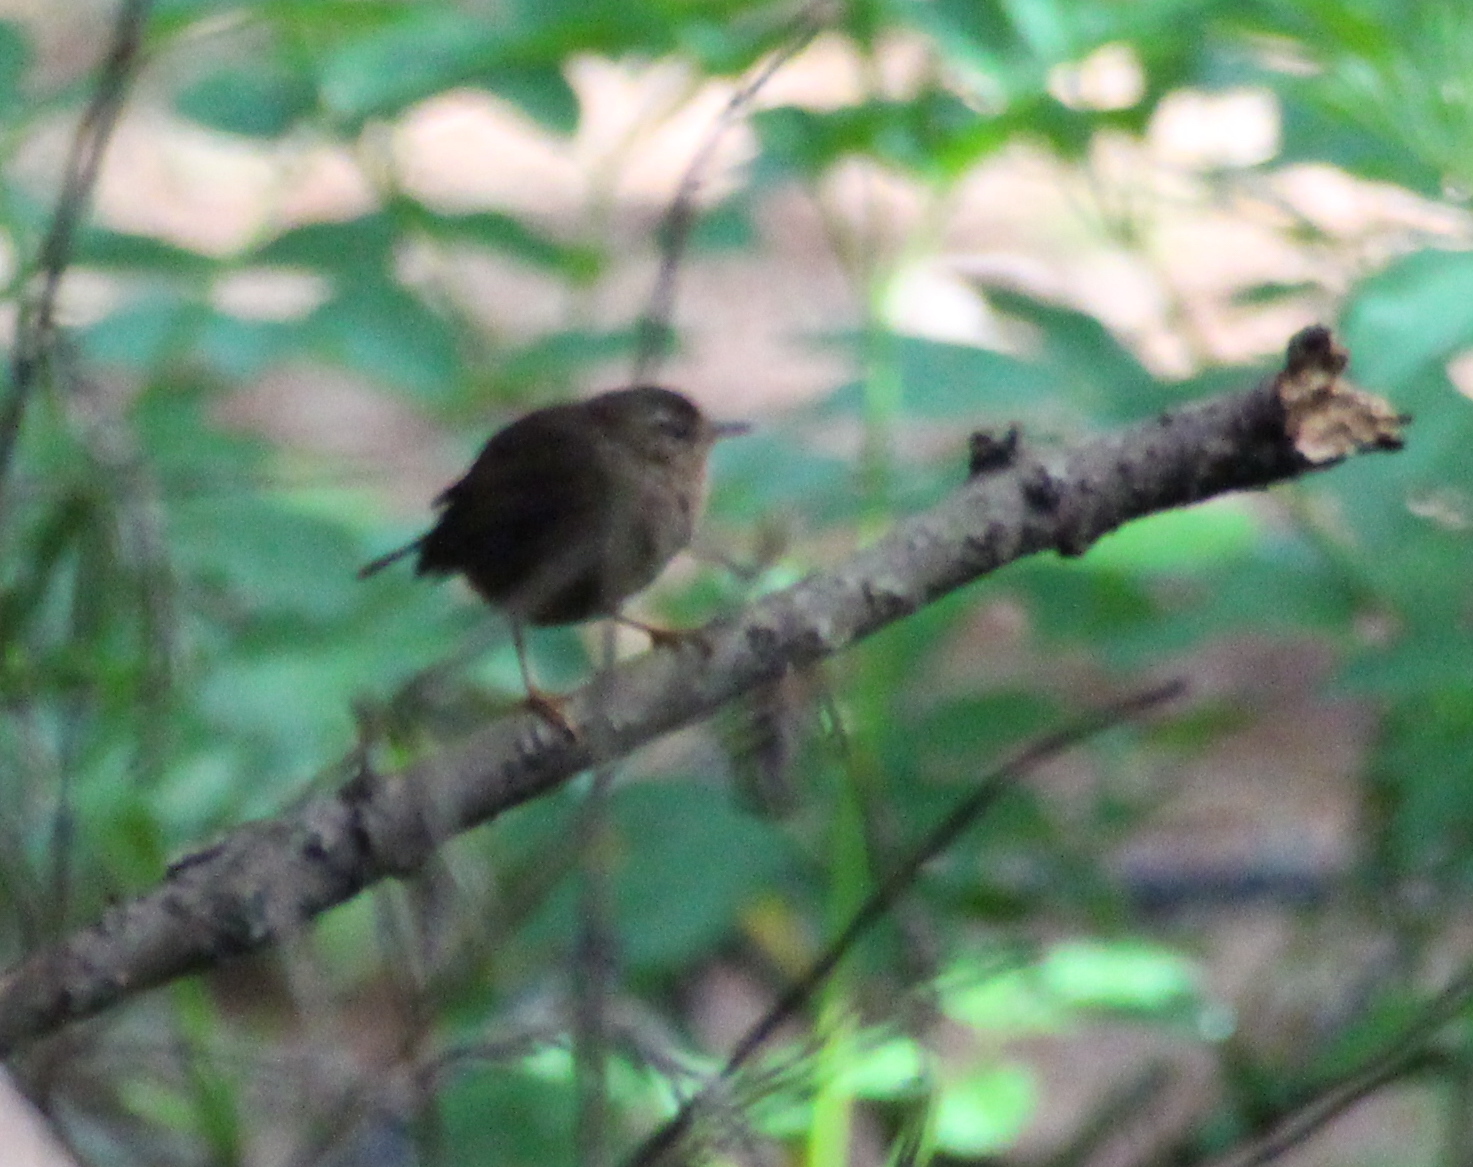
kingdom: Animalia
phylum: Chordata
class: Aves
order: Passeriformes
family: Troglodytidae
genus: Troglodytes
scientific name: Troglodytes pacificus
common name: Pacific wren
